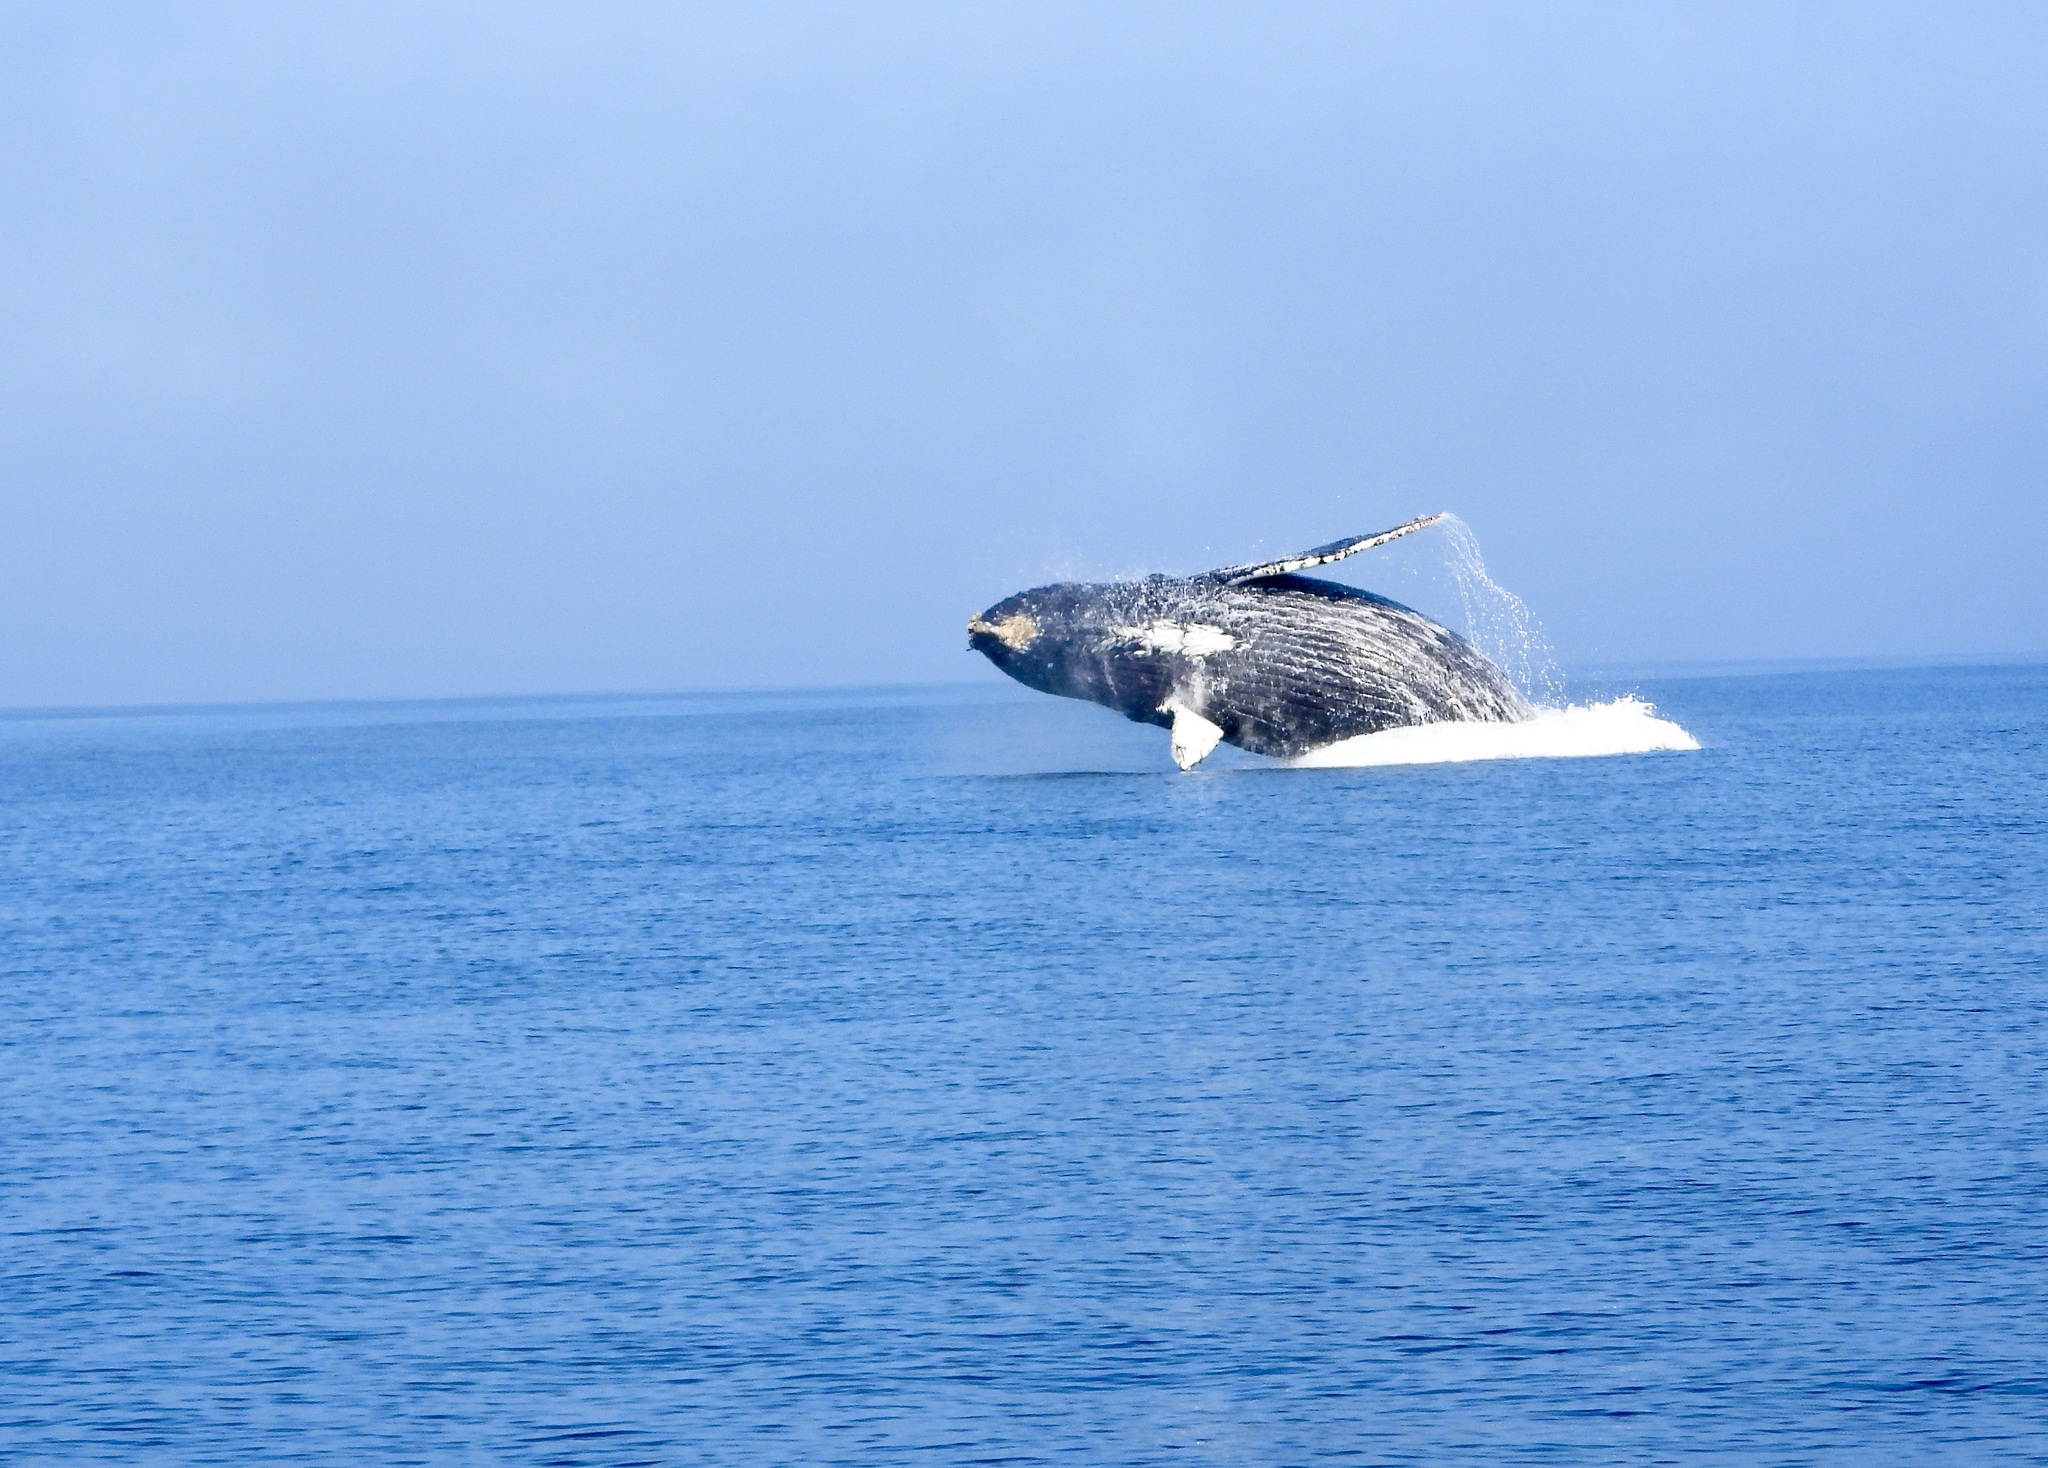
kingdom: Animalia
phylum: Chordata
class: Mammalia
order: Cetacea
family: Balaenopteridae
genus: Megaptera
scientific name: Megaptera novaeangliae
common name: Humpback whale
